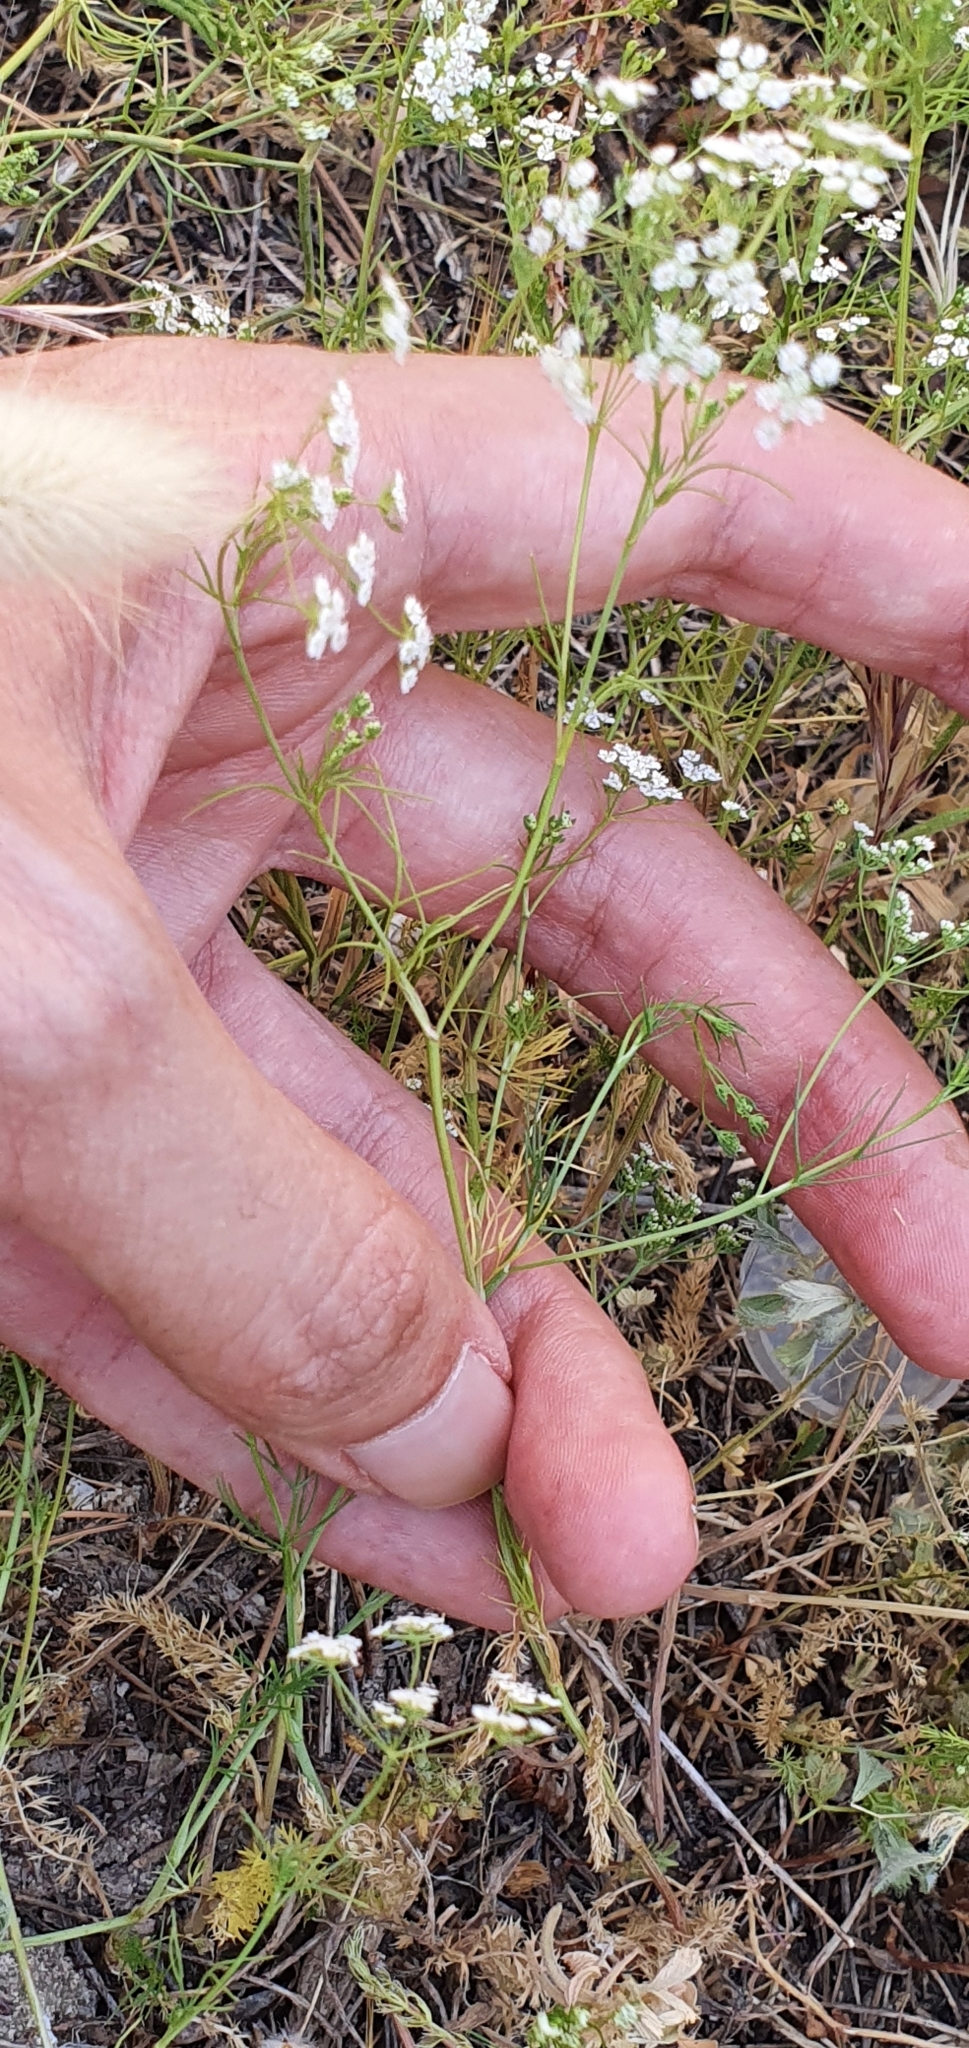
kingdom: Plantae
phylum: Tracheophyta
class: Magnoliopsida
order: Apiales
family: Apiaceae
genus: Ammoides
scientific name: Ammoides pusilla
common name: Cerfolium
